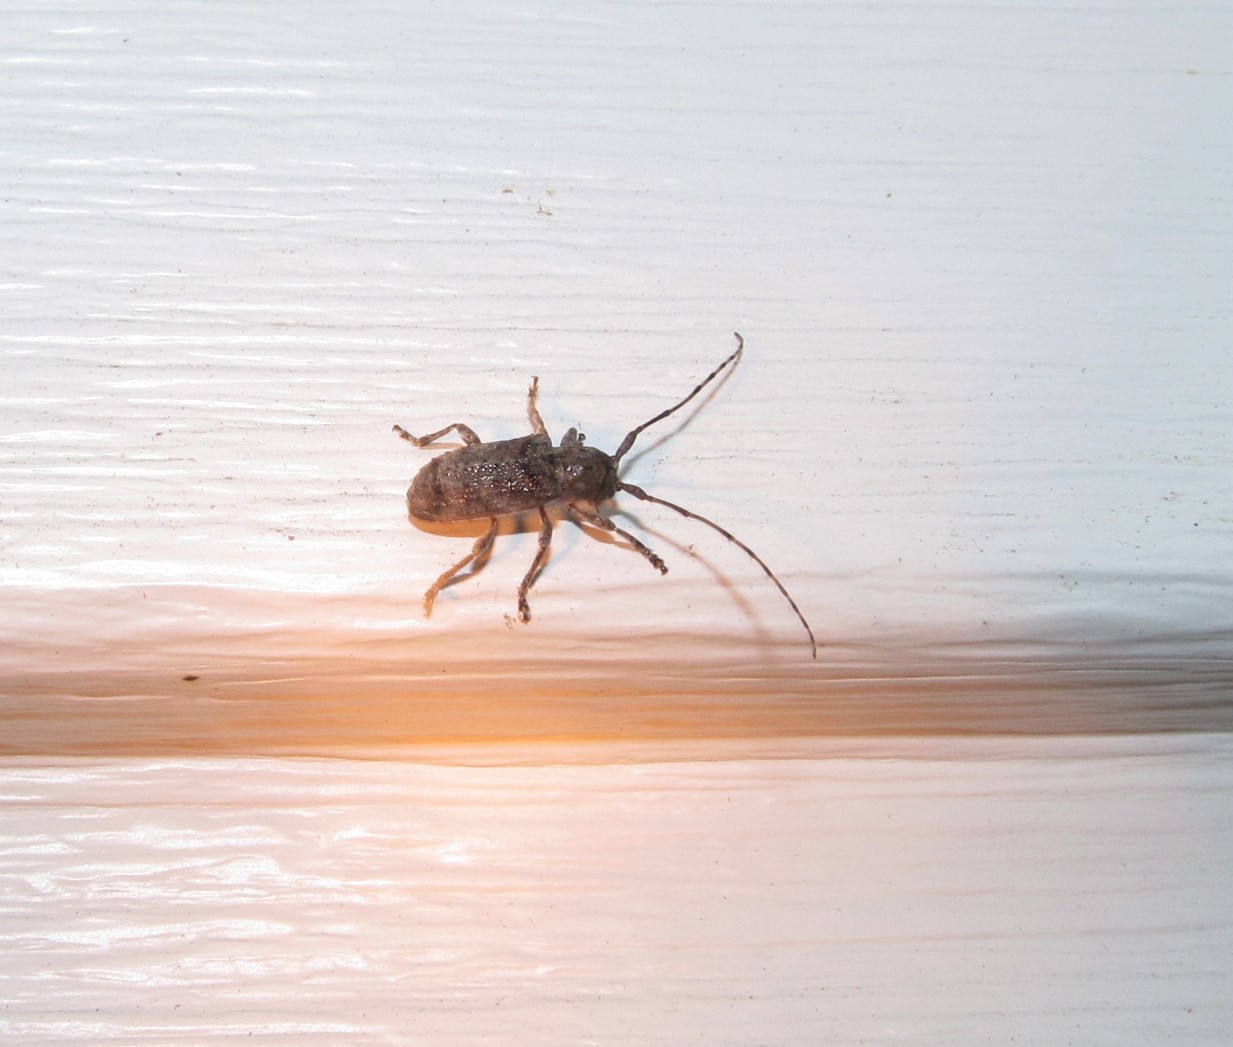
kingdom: Animalia
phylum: Arthropoda
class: Insecta
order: Coleoptera
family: Cerambycidae
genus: Ecyrus
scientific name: Ecyrus dasycerus
